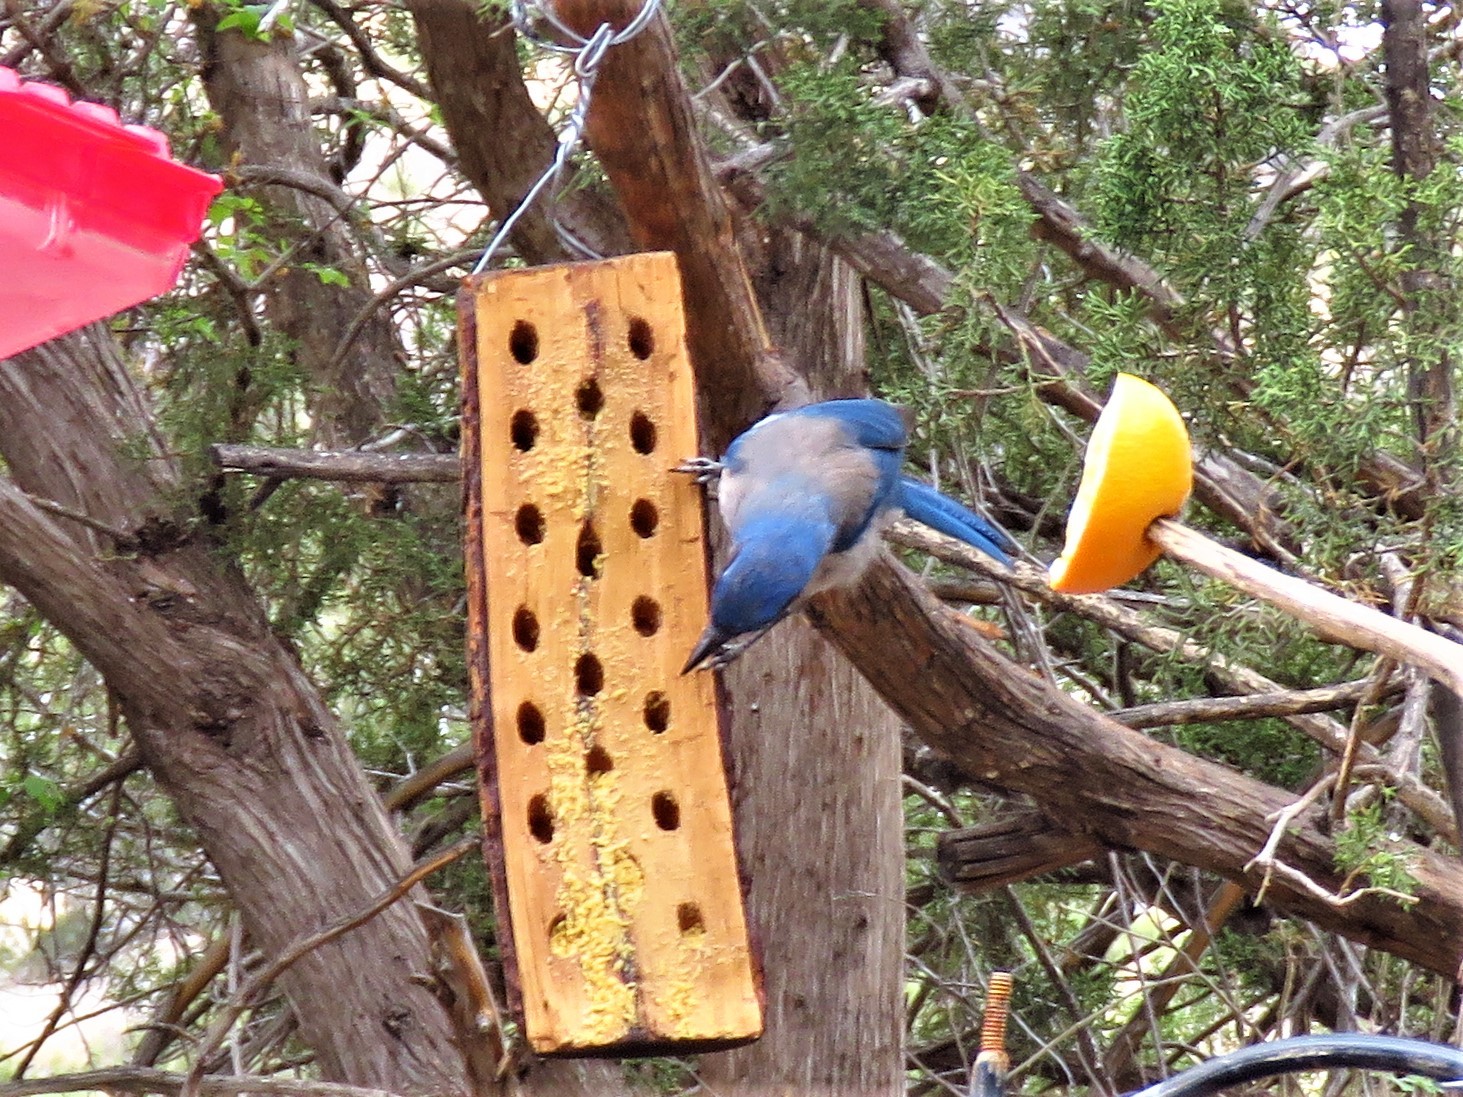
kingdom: Animalia
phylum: Chordata
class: Aves
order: Passeriformes
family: Corvidae
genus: Aphelocoma
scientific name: Aphelocoma woodhouseii
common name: Woodhouse's scrub-jay
